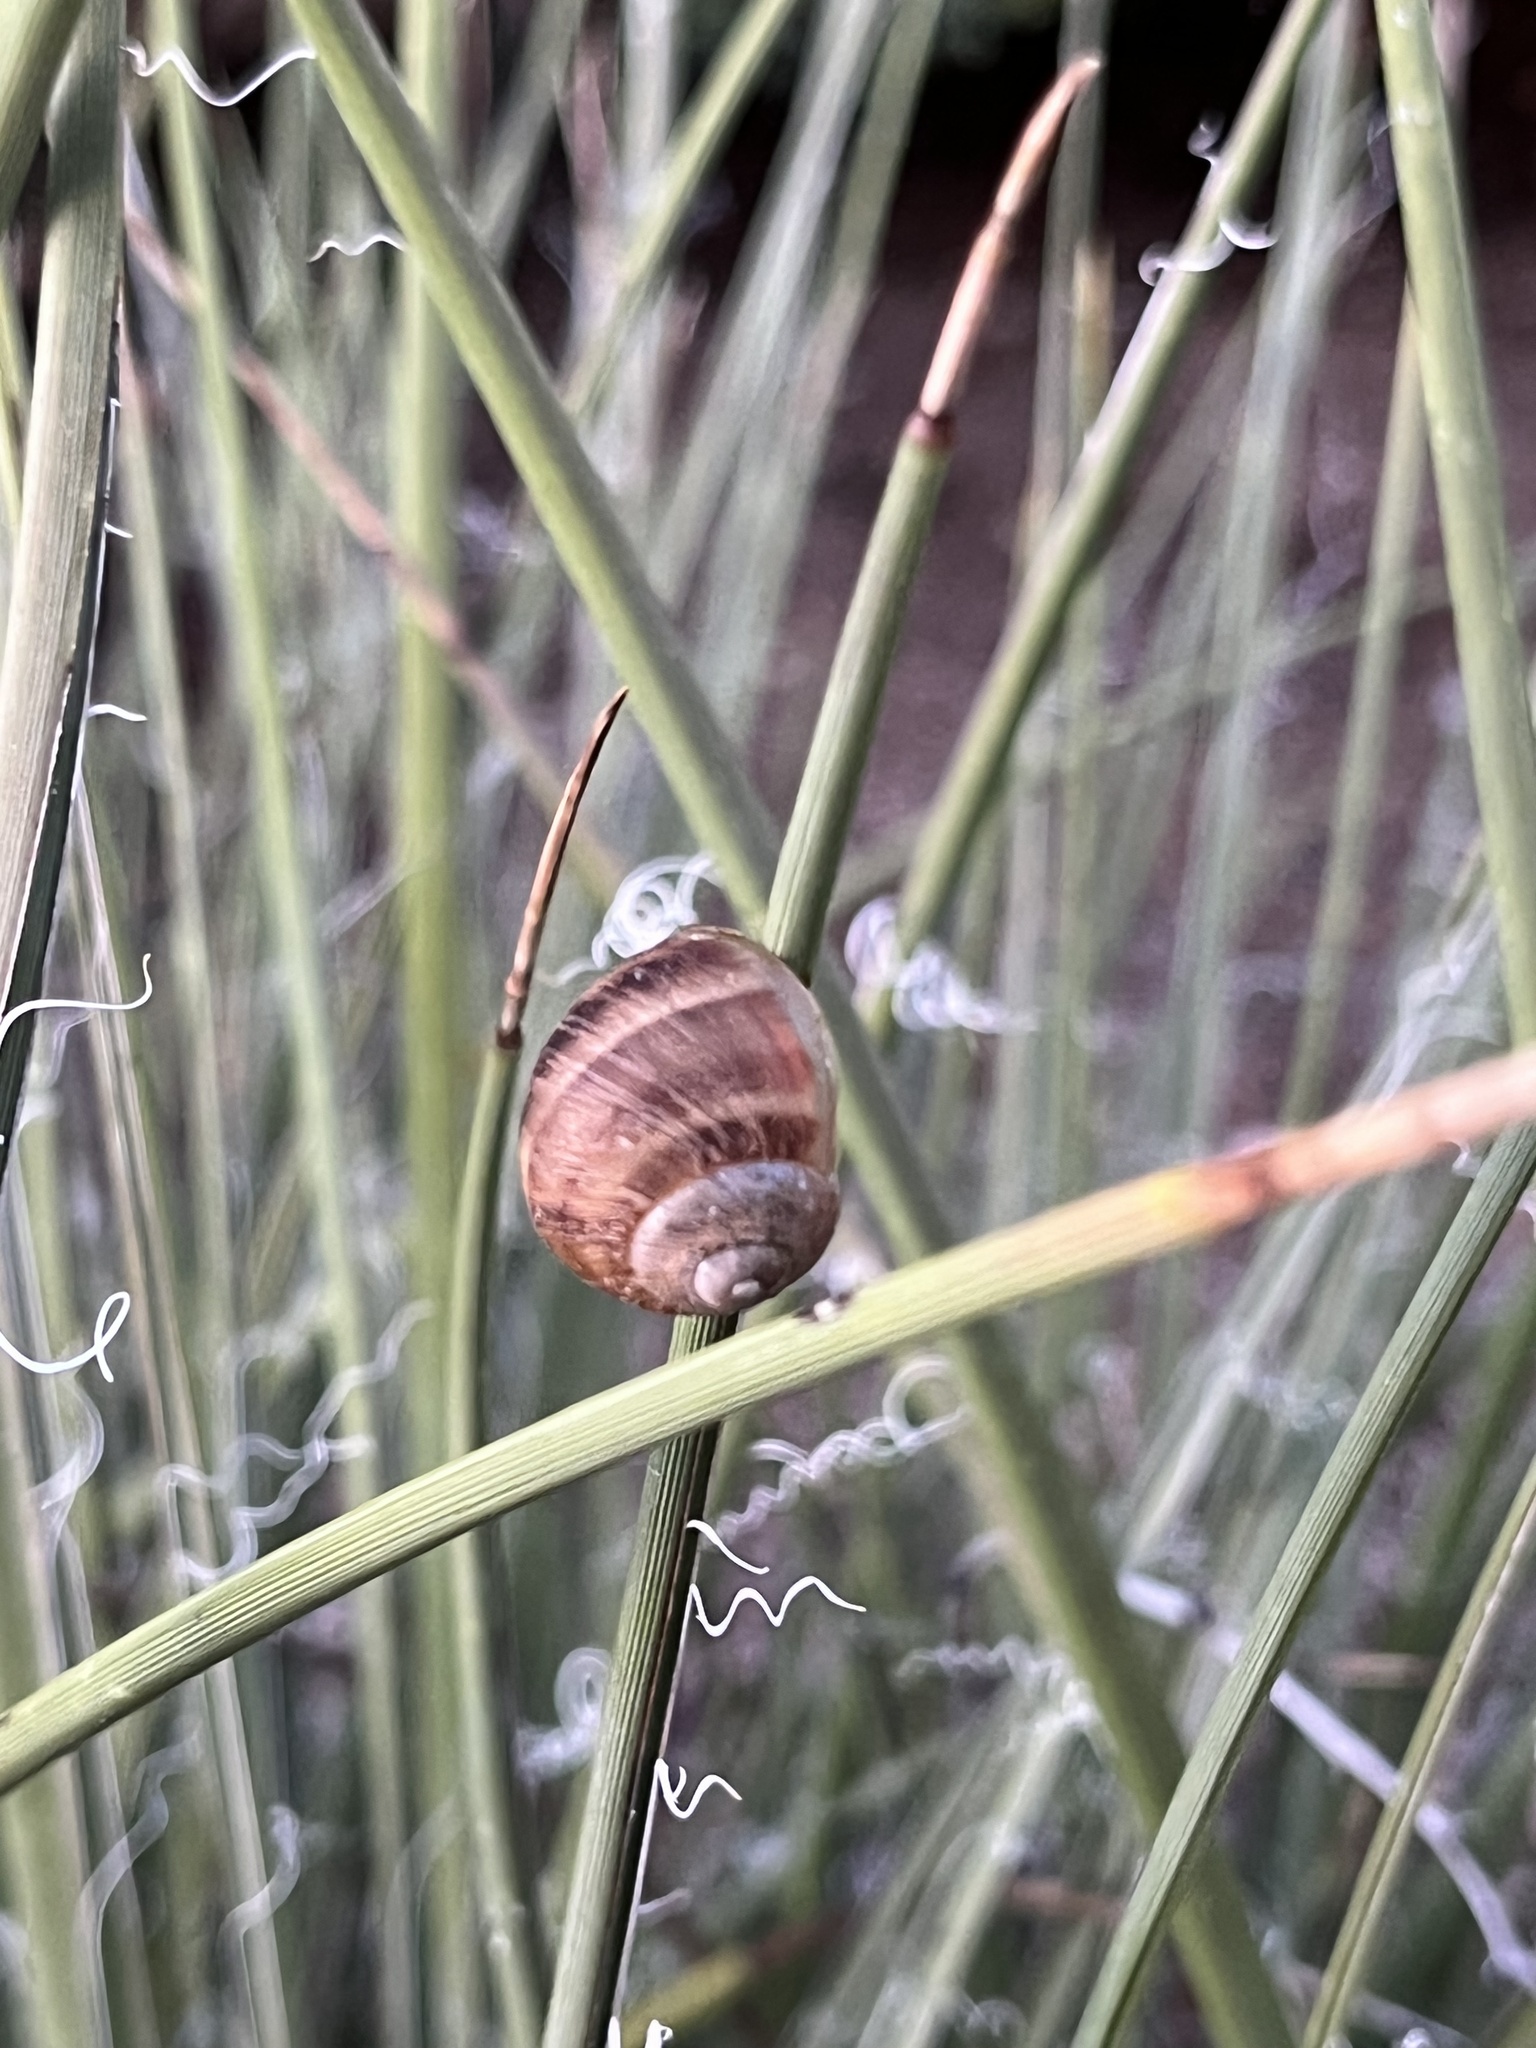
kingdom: Animalia
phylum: Mollusca
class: Gastropoda
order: Stylommatophora
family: Helicidae
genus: Cornu
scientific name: Cornu aspersum
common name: Brown garden snail
